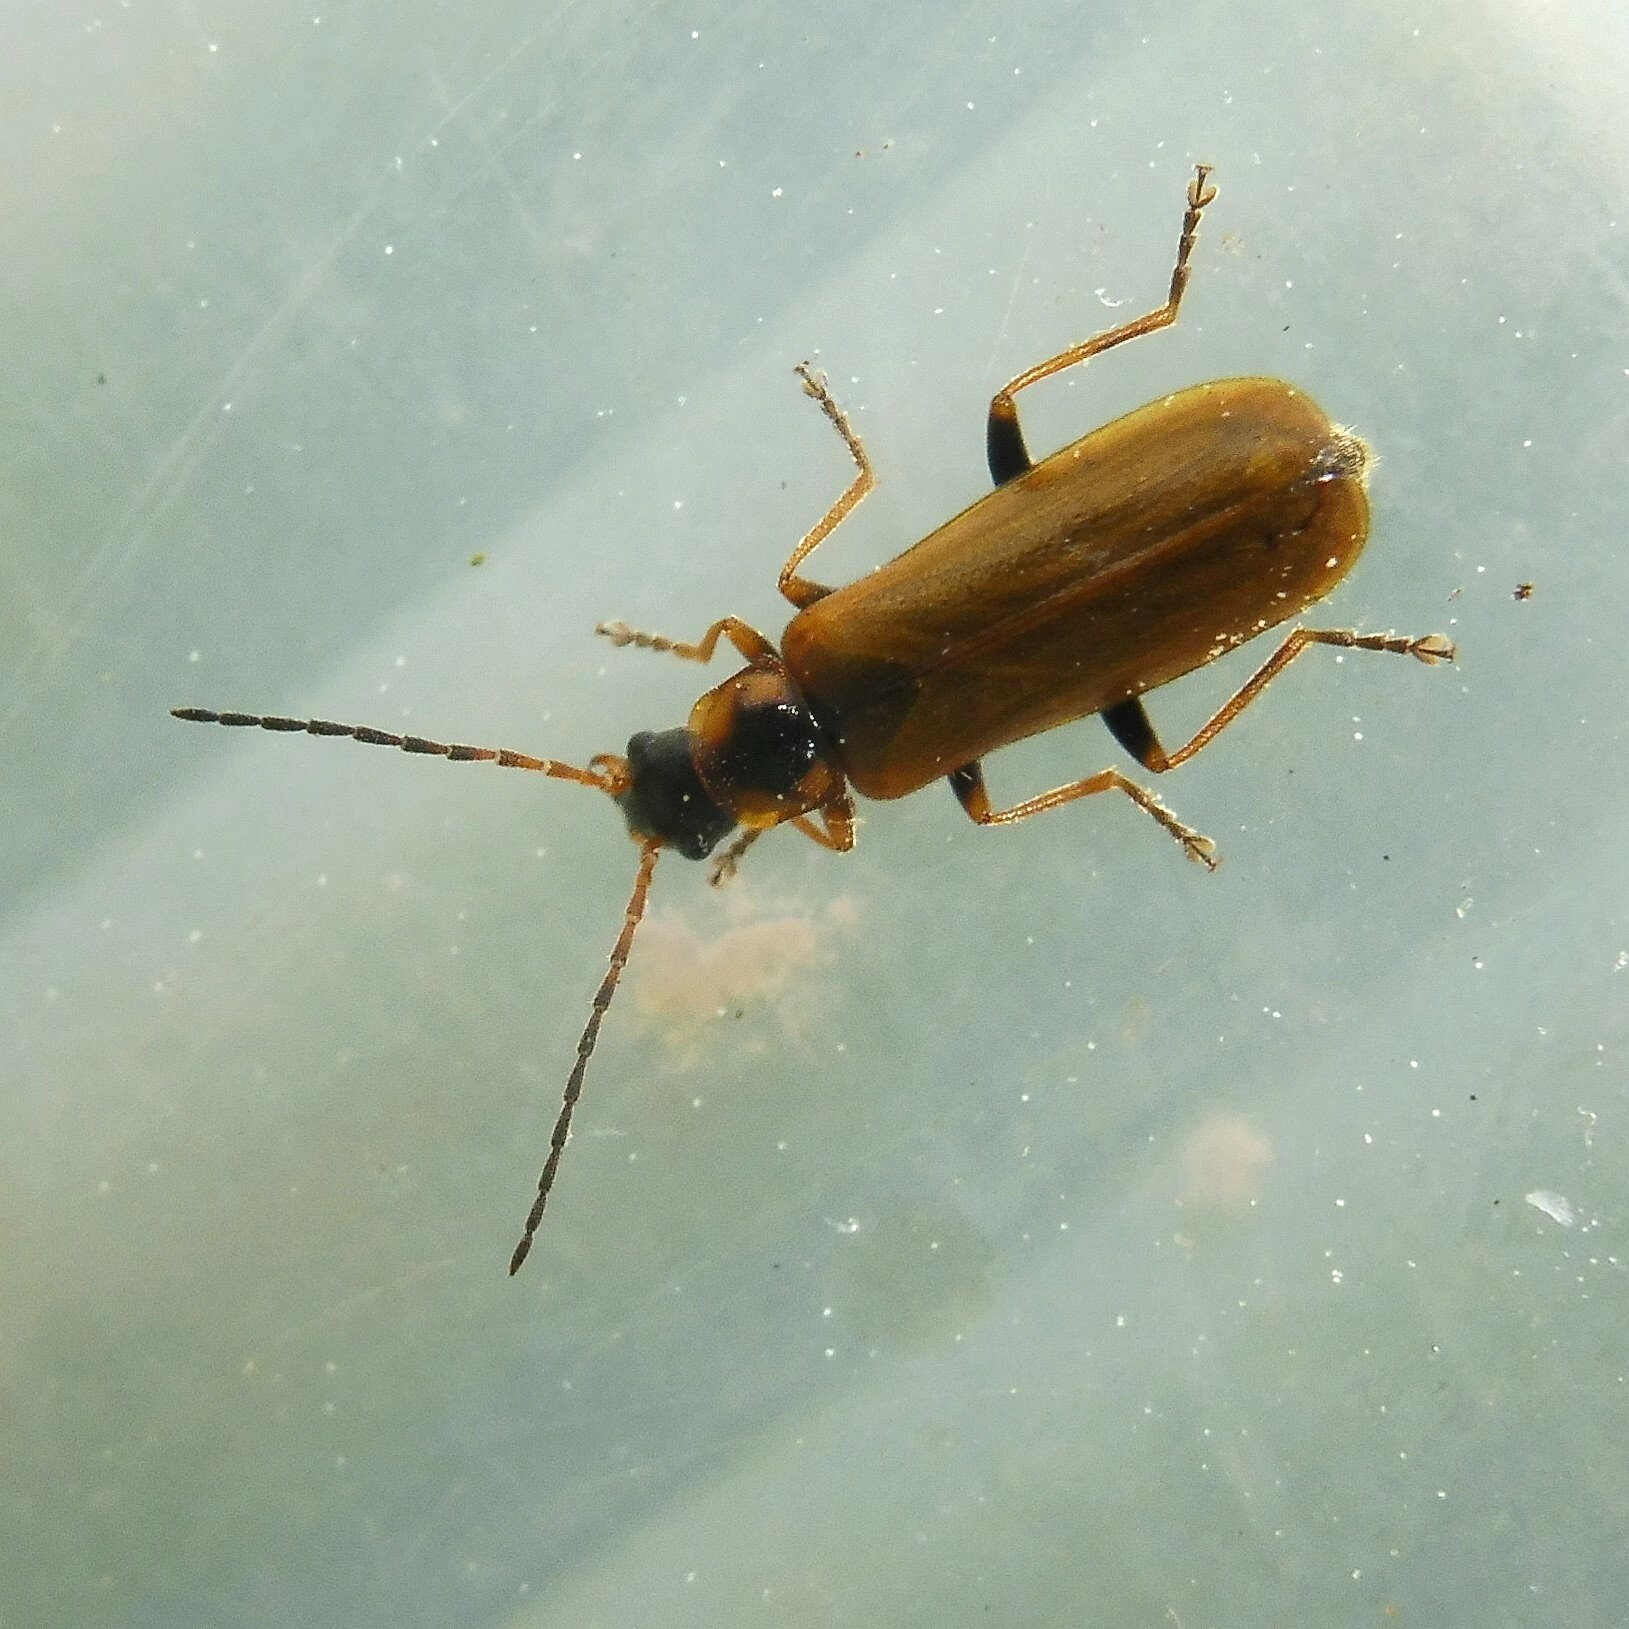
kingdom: Animalia
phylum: Arthropoda
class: Insecta
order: Coleoptera
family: Cantharidae
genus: Rhagonycha
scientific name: Rhagonycha nigriventris
